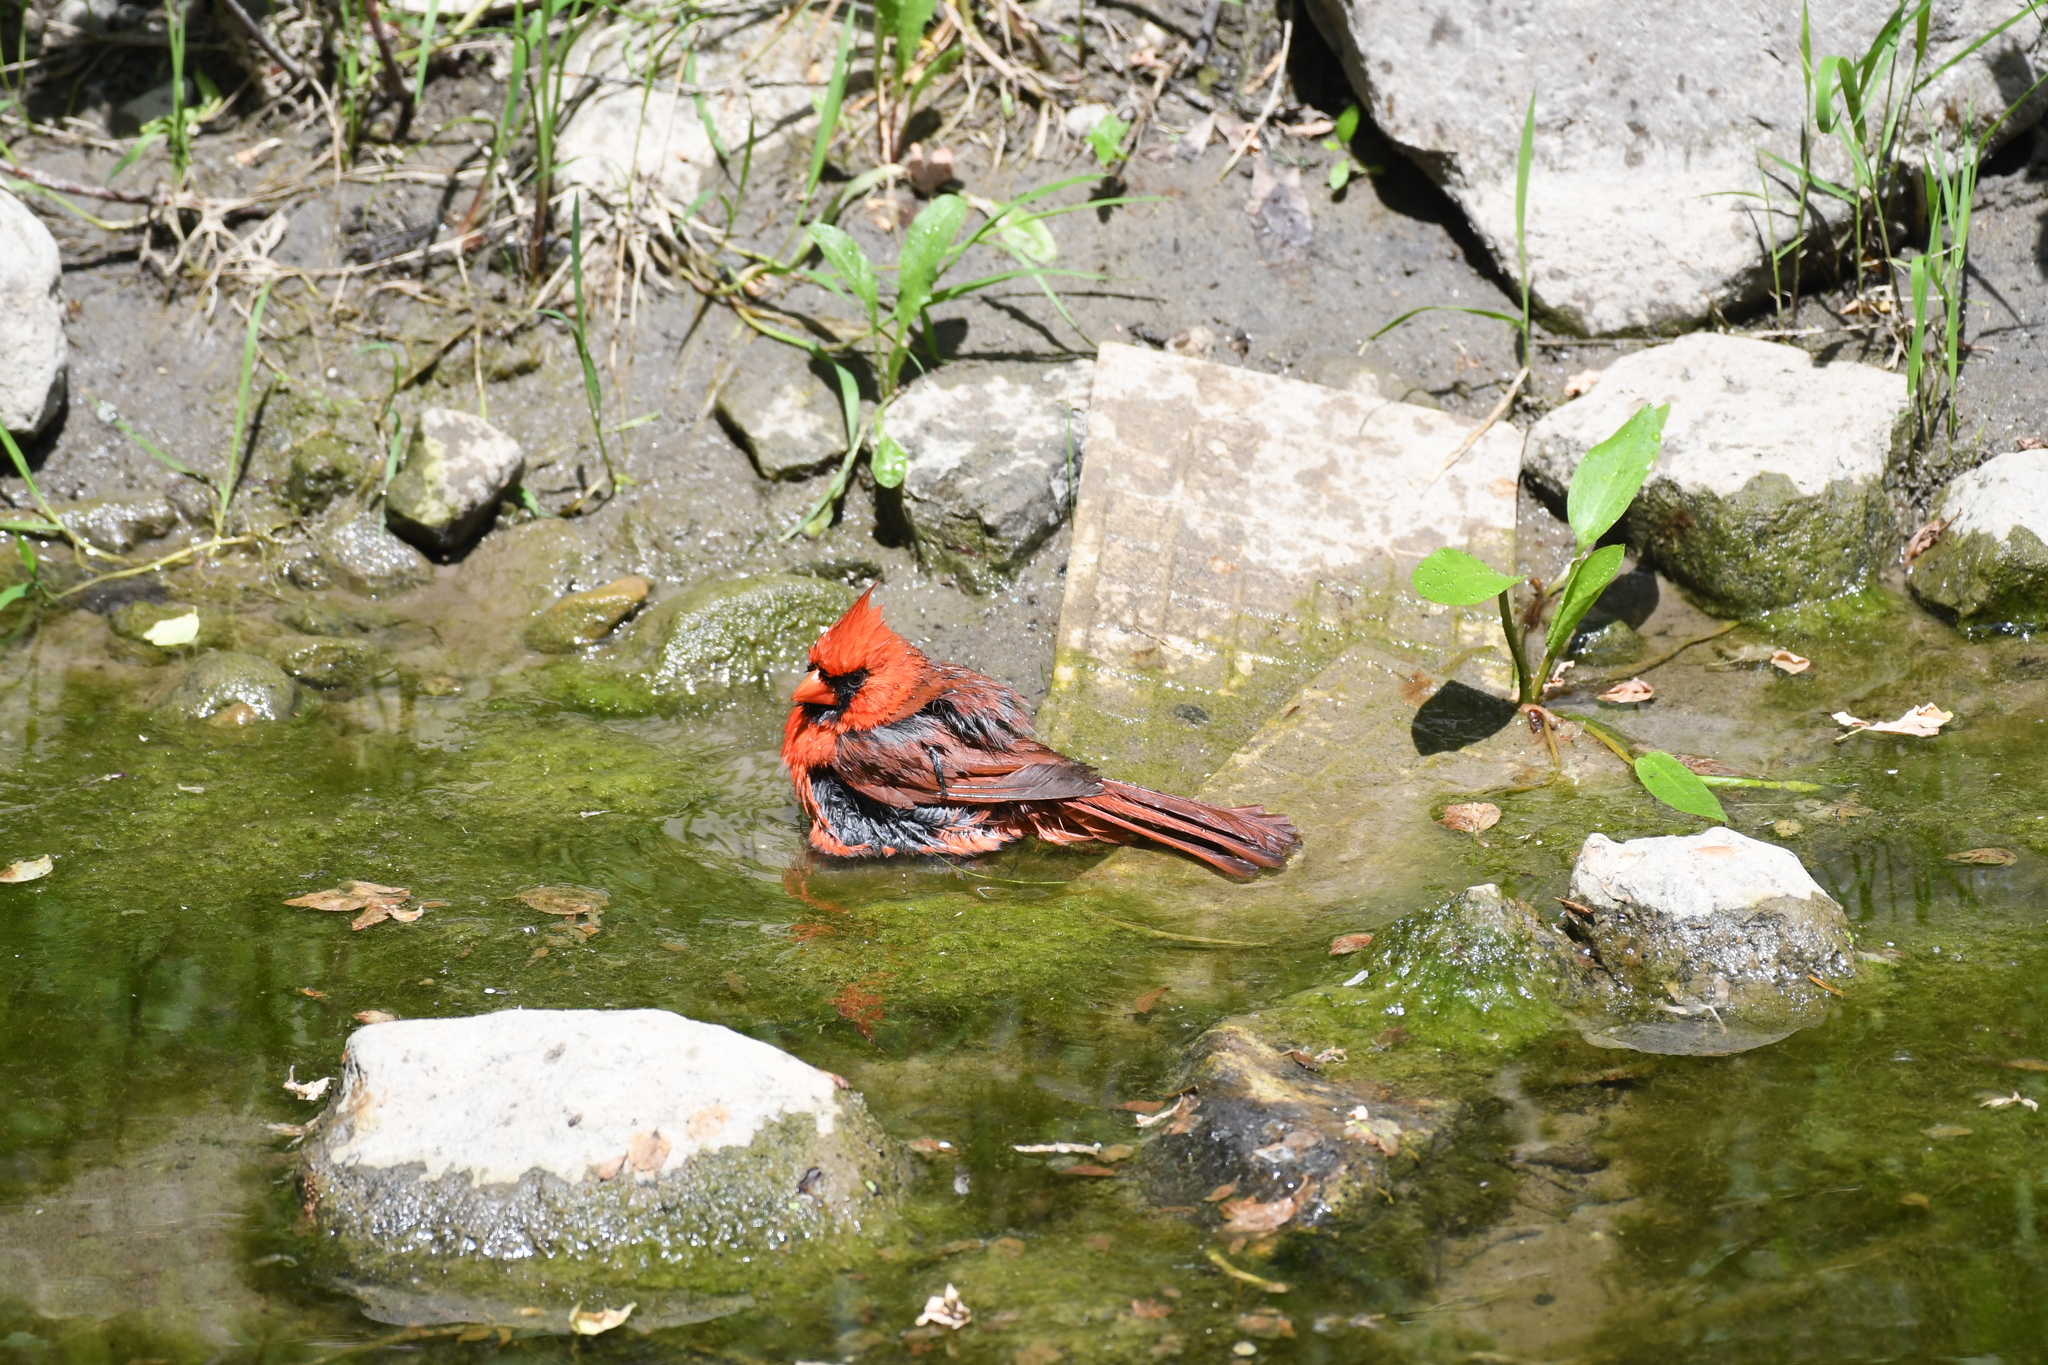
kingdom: Animalia
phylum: Chordata
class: Aves
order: Passeriformes
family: Cardinalidae
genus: Cardinalis
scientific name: Cardinalis cardinalis
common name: Northern cardinal
